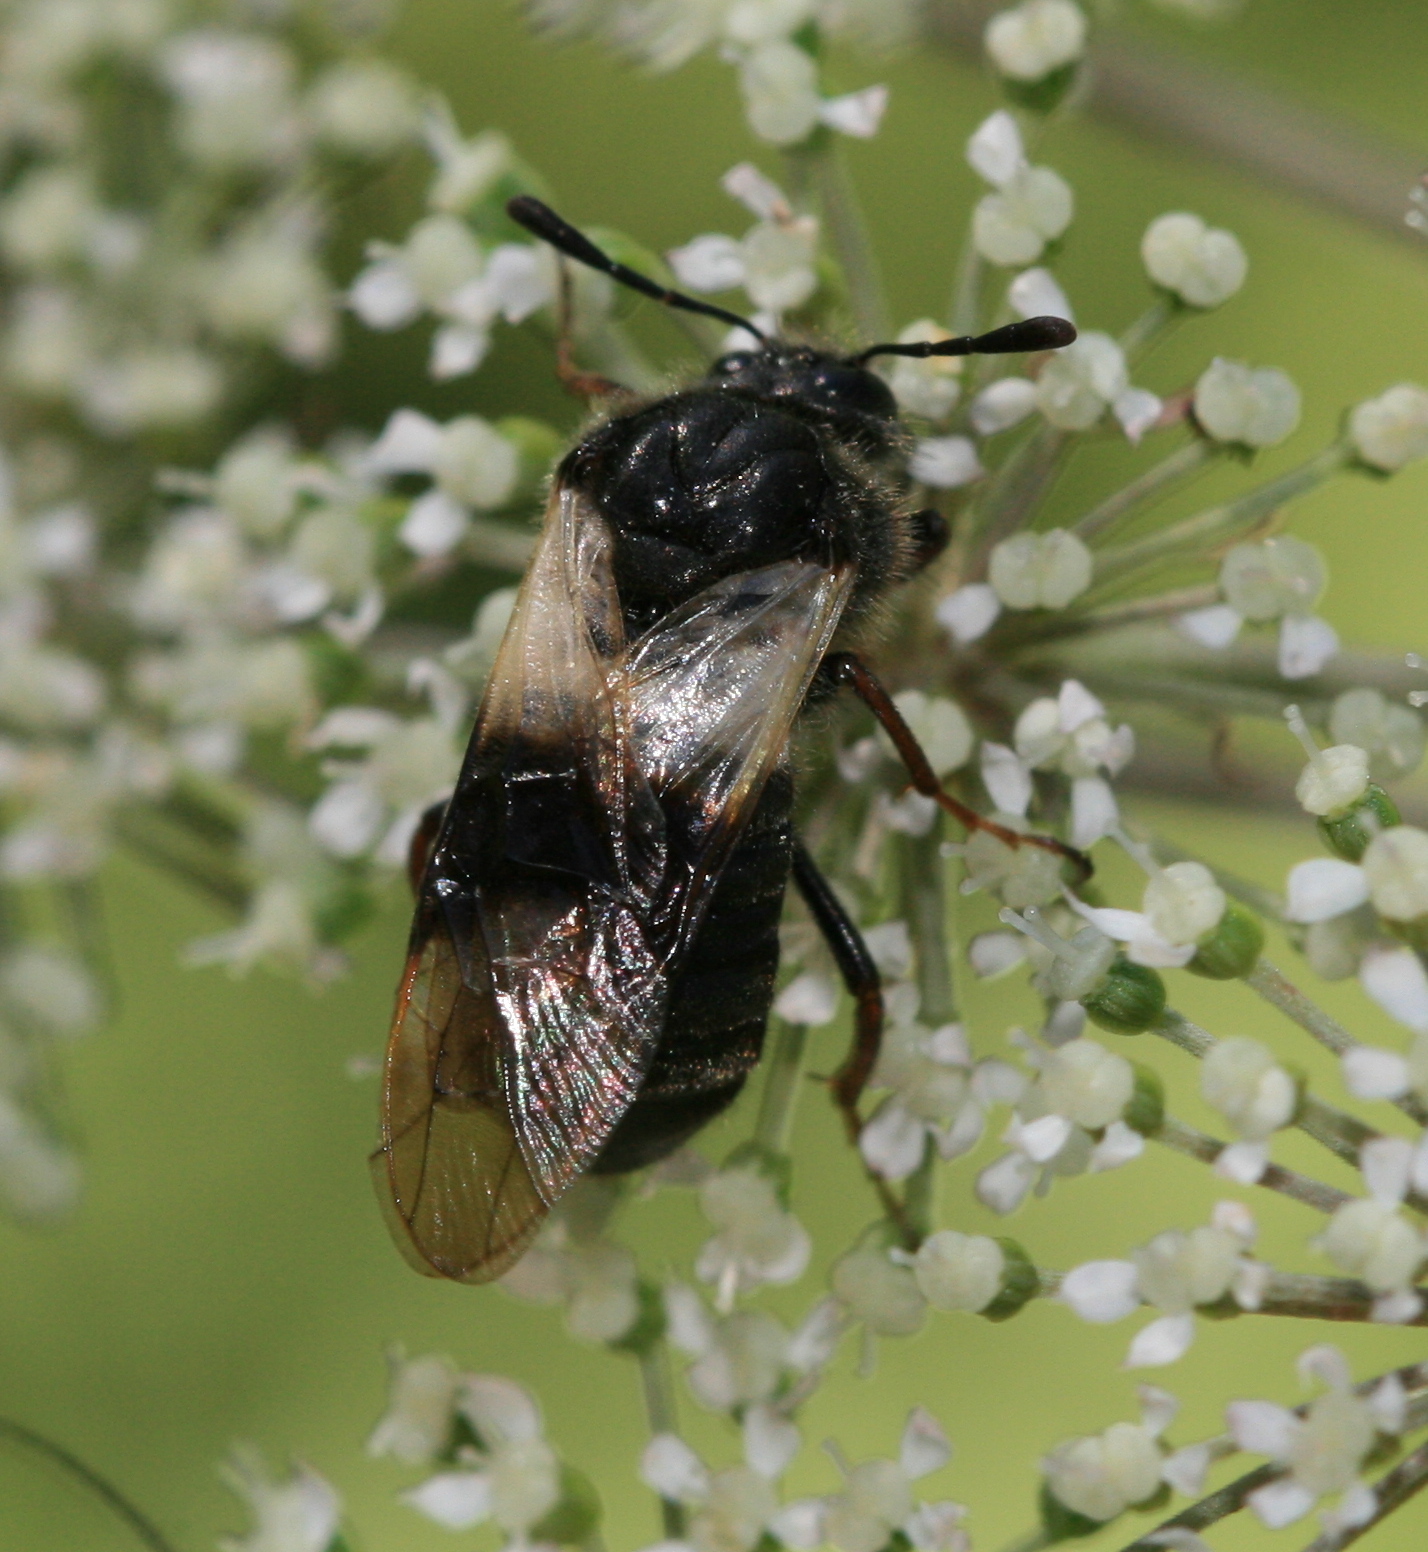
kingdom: Animalia
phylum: Arthropoda
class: Insecta
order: Hymenoptera
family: Cimbicidae
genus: Abia
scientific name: Abia fasciata
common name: Banded honeysuckle sawfly
